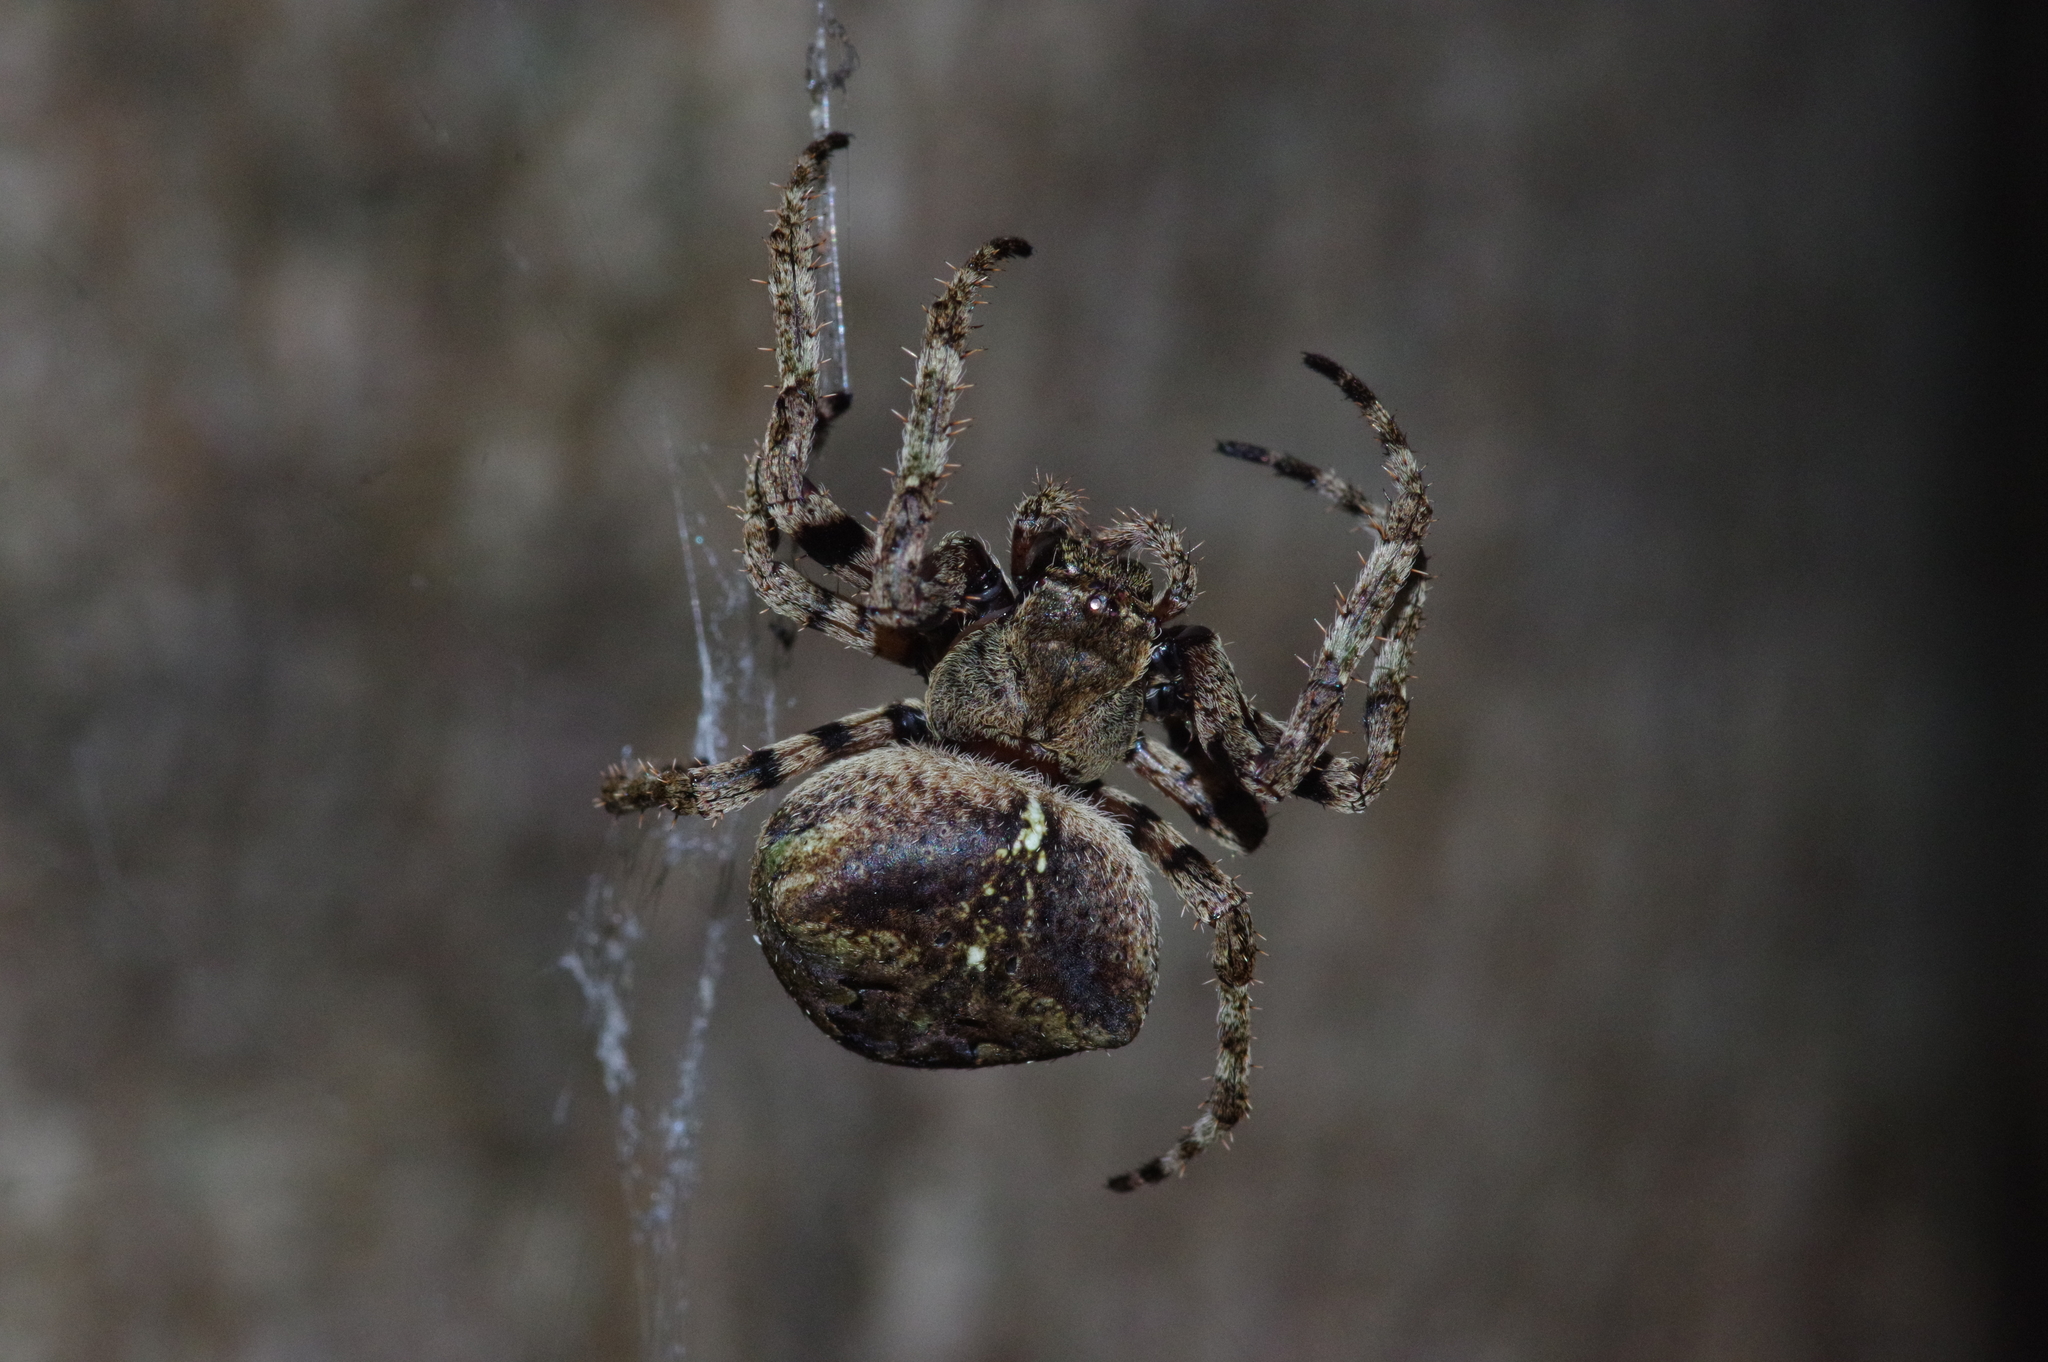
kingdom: Animalia
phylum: Arthropoda
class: Arachnida
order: Araneae
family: Araneidae
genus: Araneus
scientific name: Araneus ventricosus
